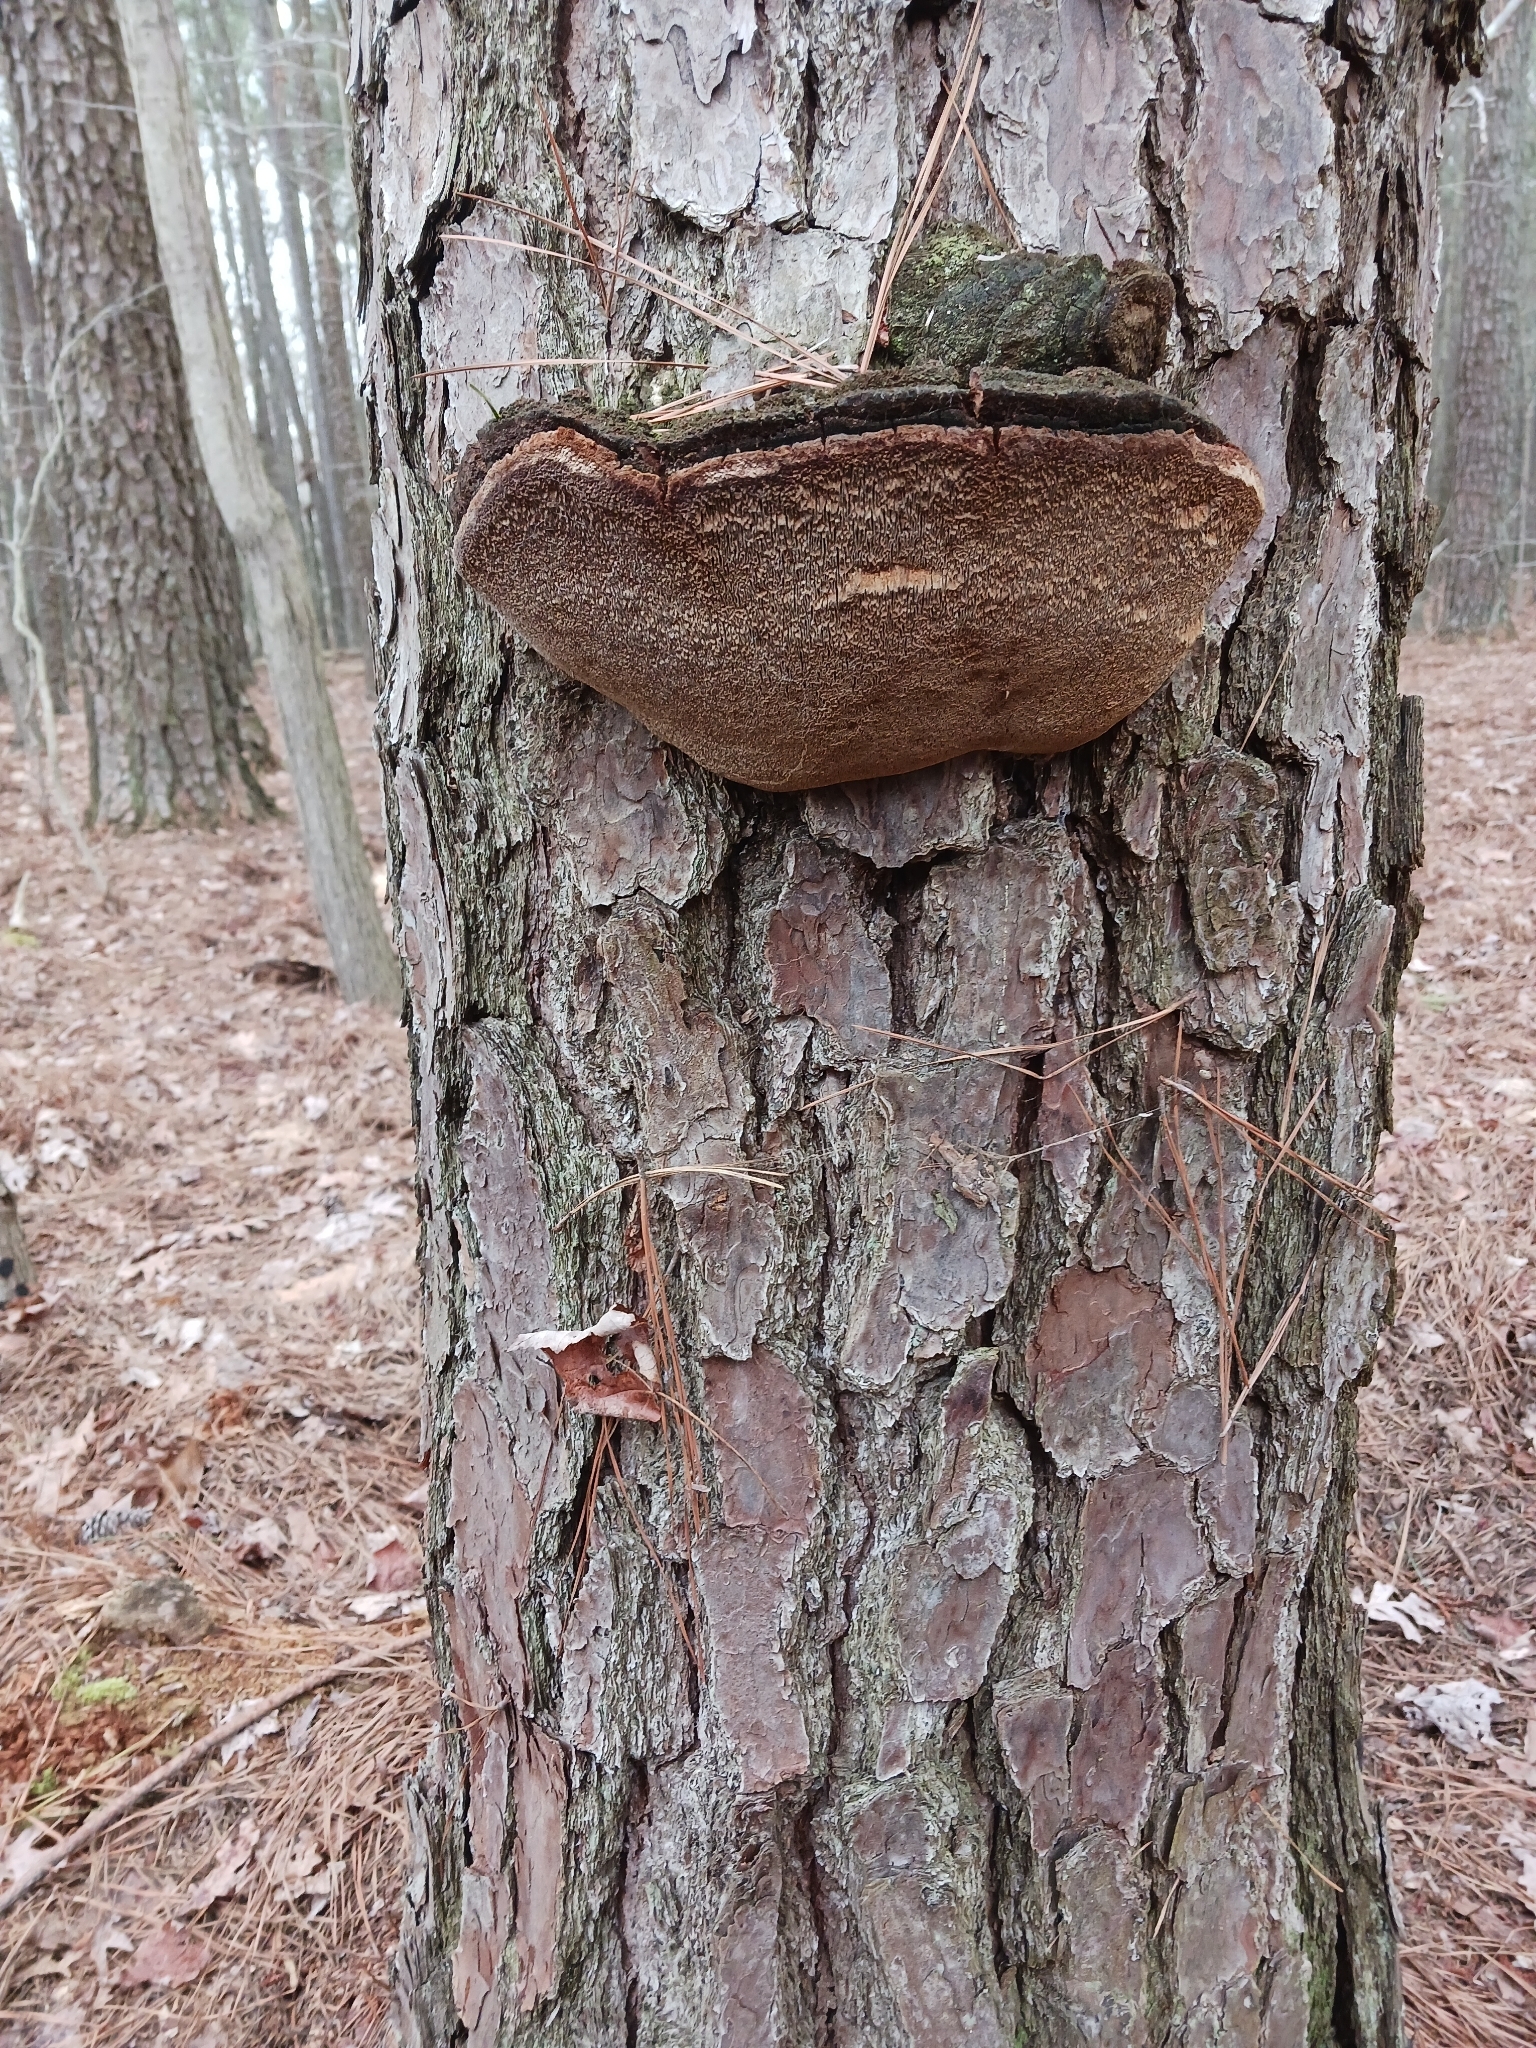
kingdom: Fungi
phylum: Basidiomycota
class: Agaricomycetes
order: Hymenochaetales
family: Hymenochaetaceae
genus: Porodaedalea
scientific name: Porodaedalea pini
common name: Pine bracket
